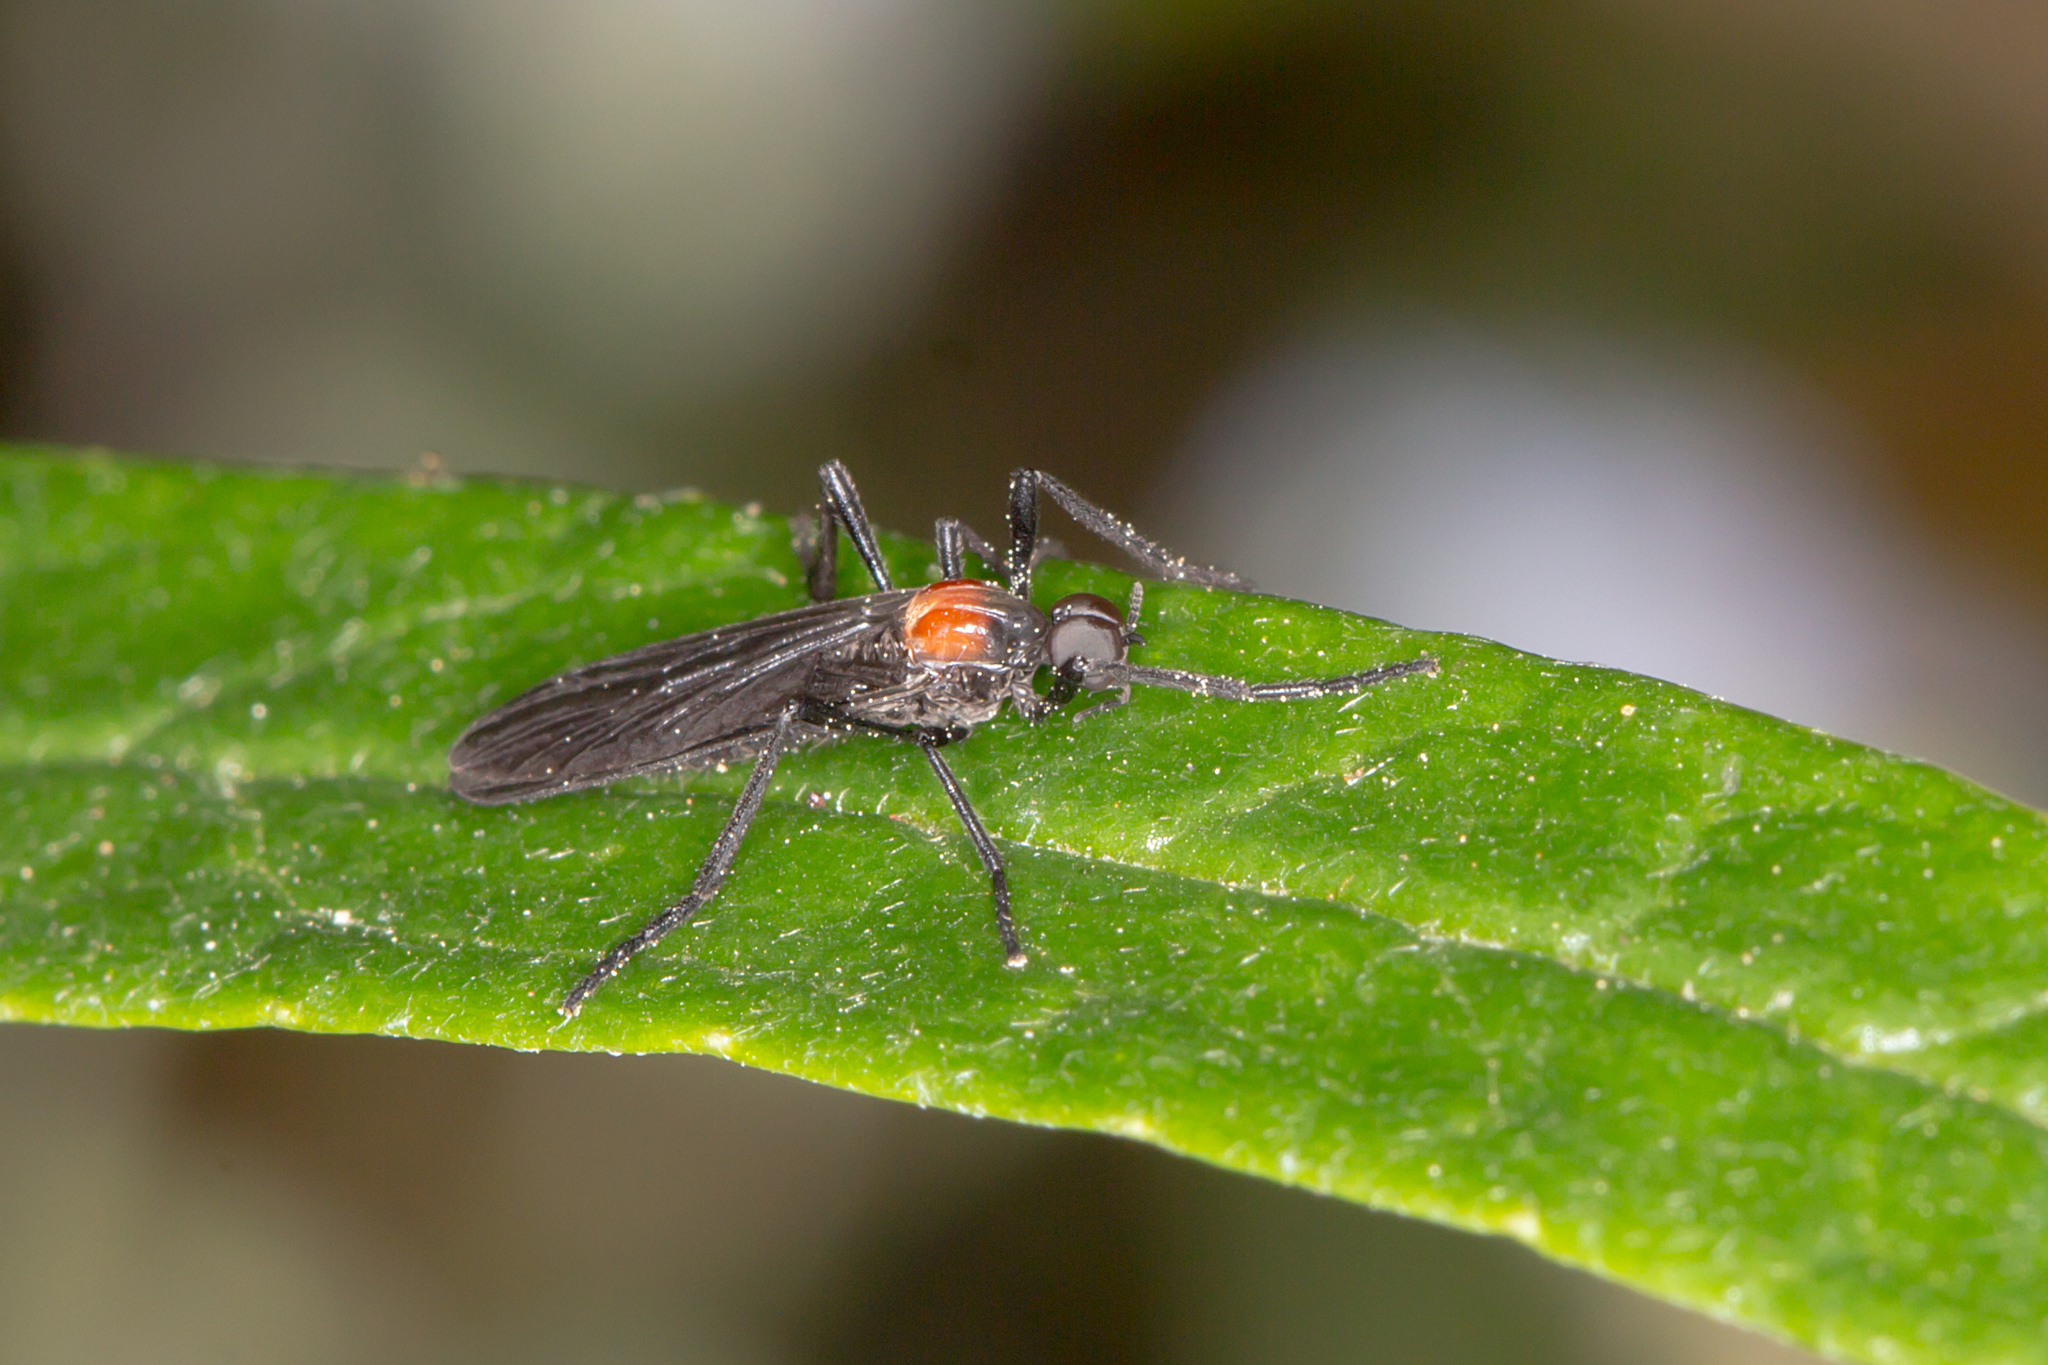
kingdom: Animalia
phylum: Arthropoda
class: Insecta
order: Diptera
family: Bibionidae
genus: Plecia
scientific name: Plecia dimidiata
